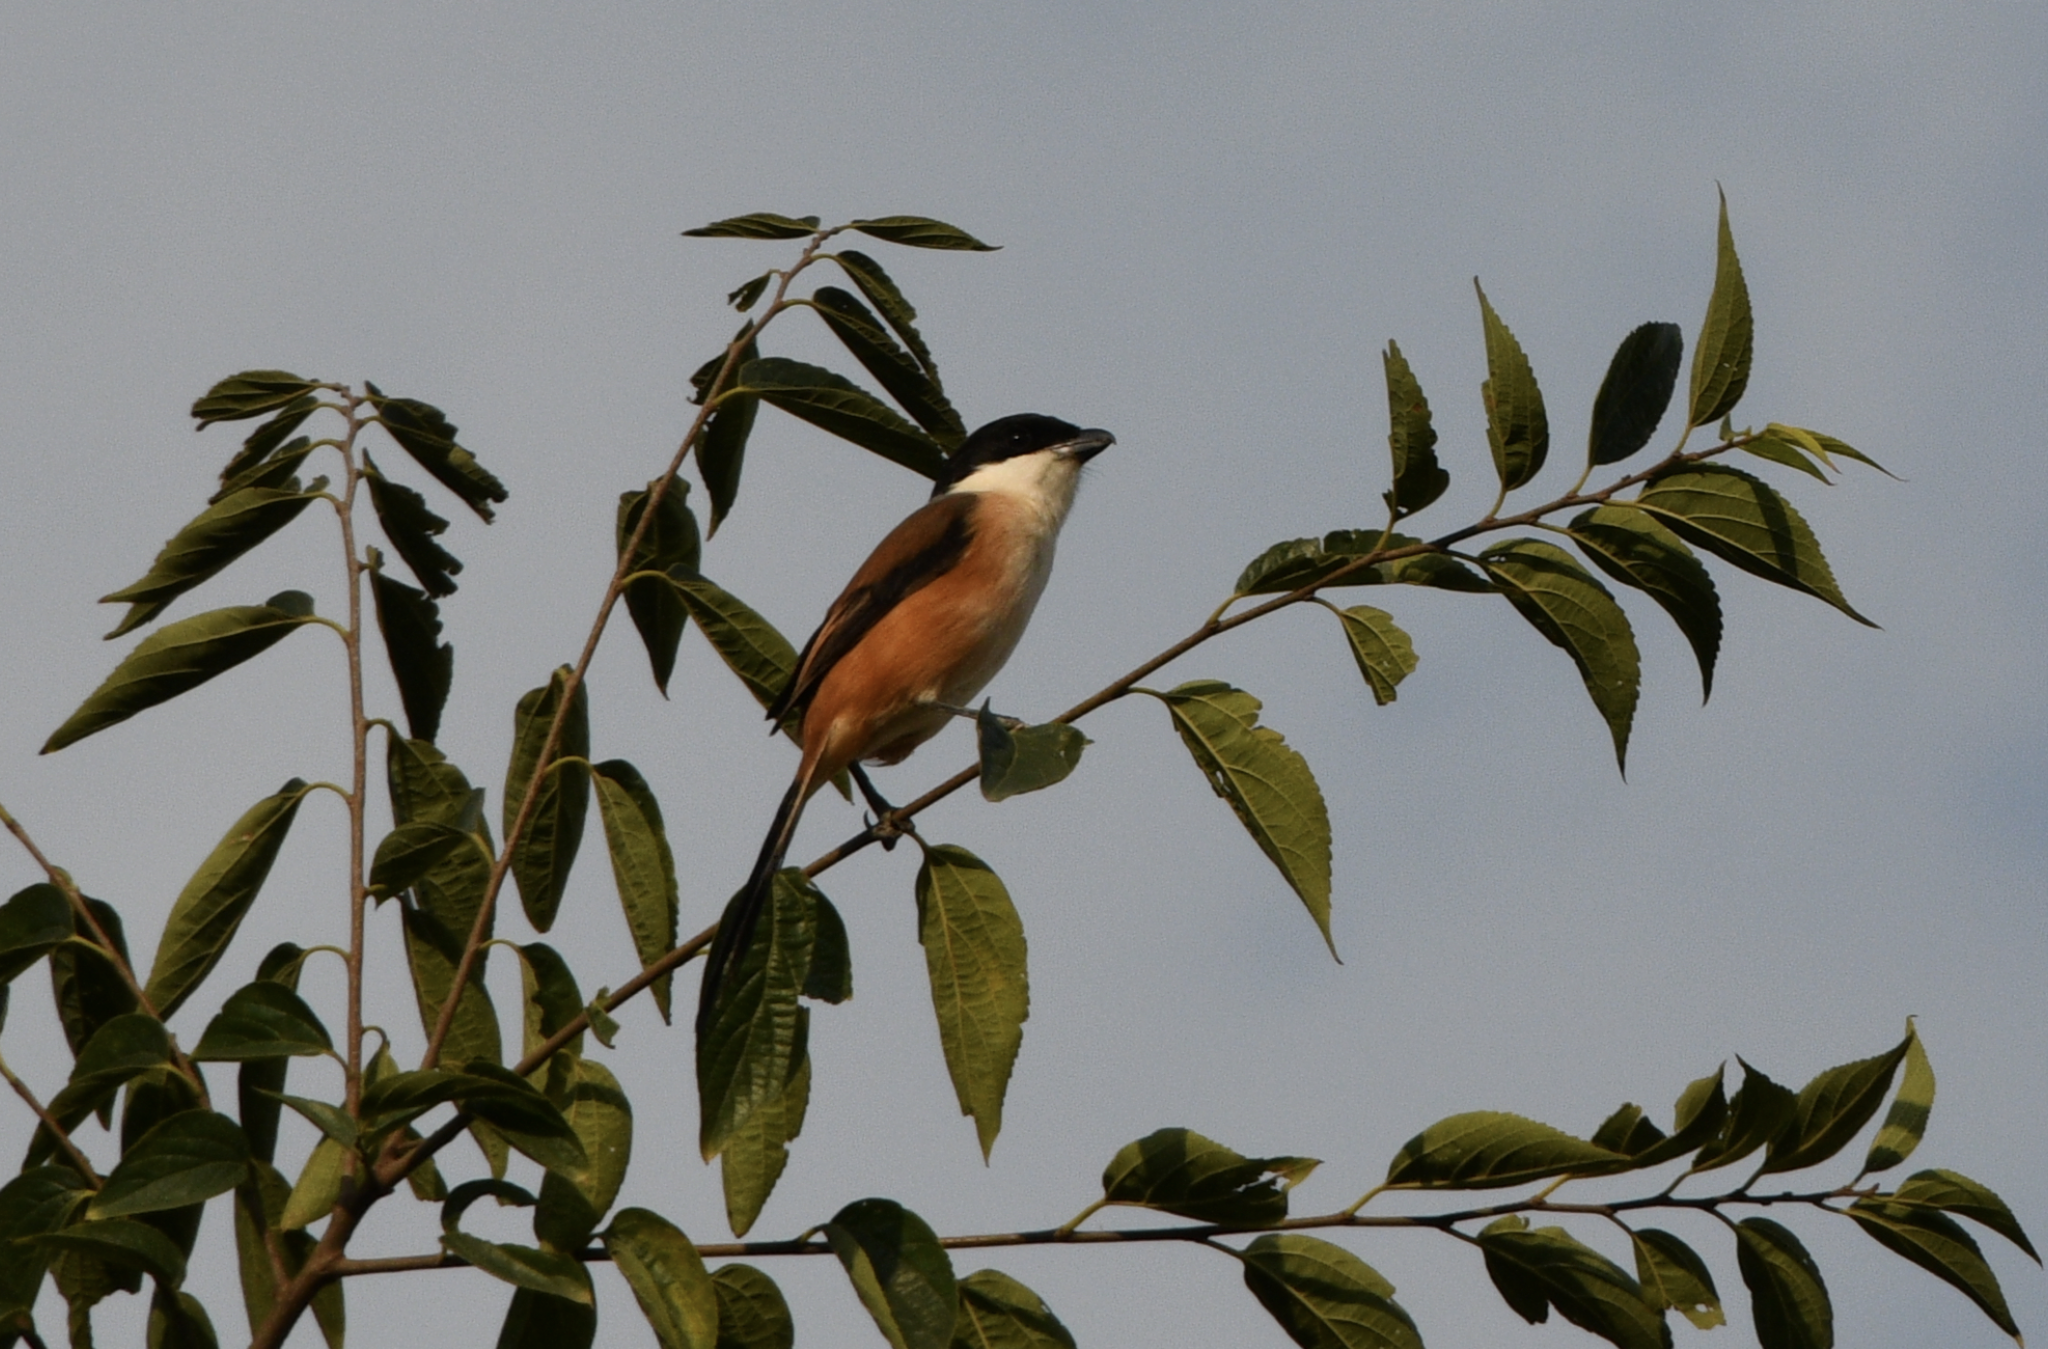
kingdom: Animalia
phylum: Chordata
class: Aves
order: Passeriformes
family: Laniidae
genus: Lanius
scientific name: Lanius schach
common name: Long-tailed shrike
